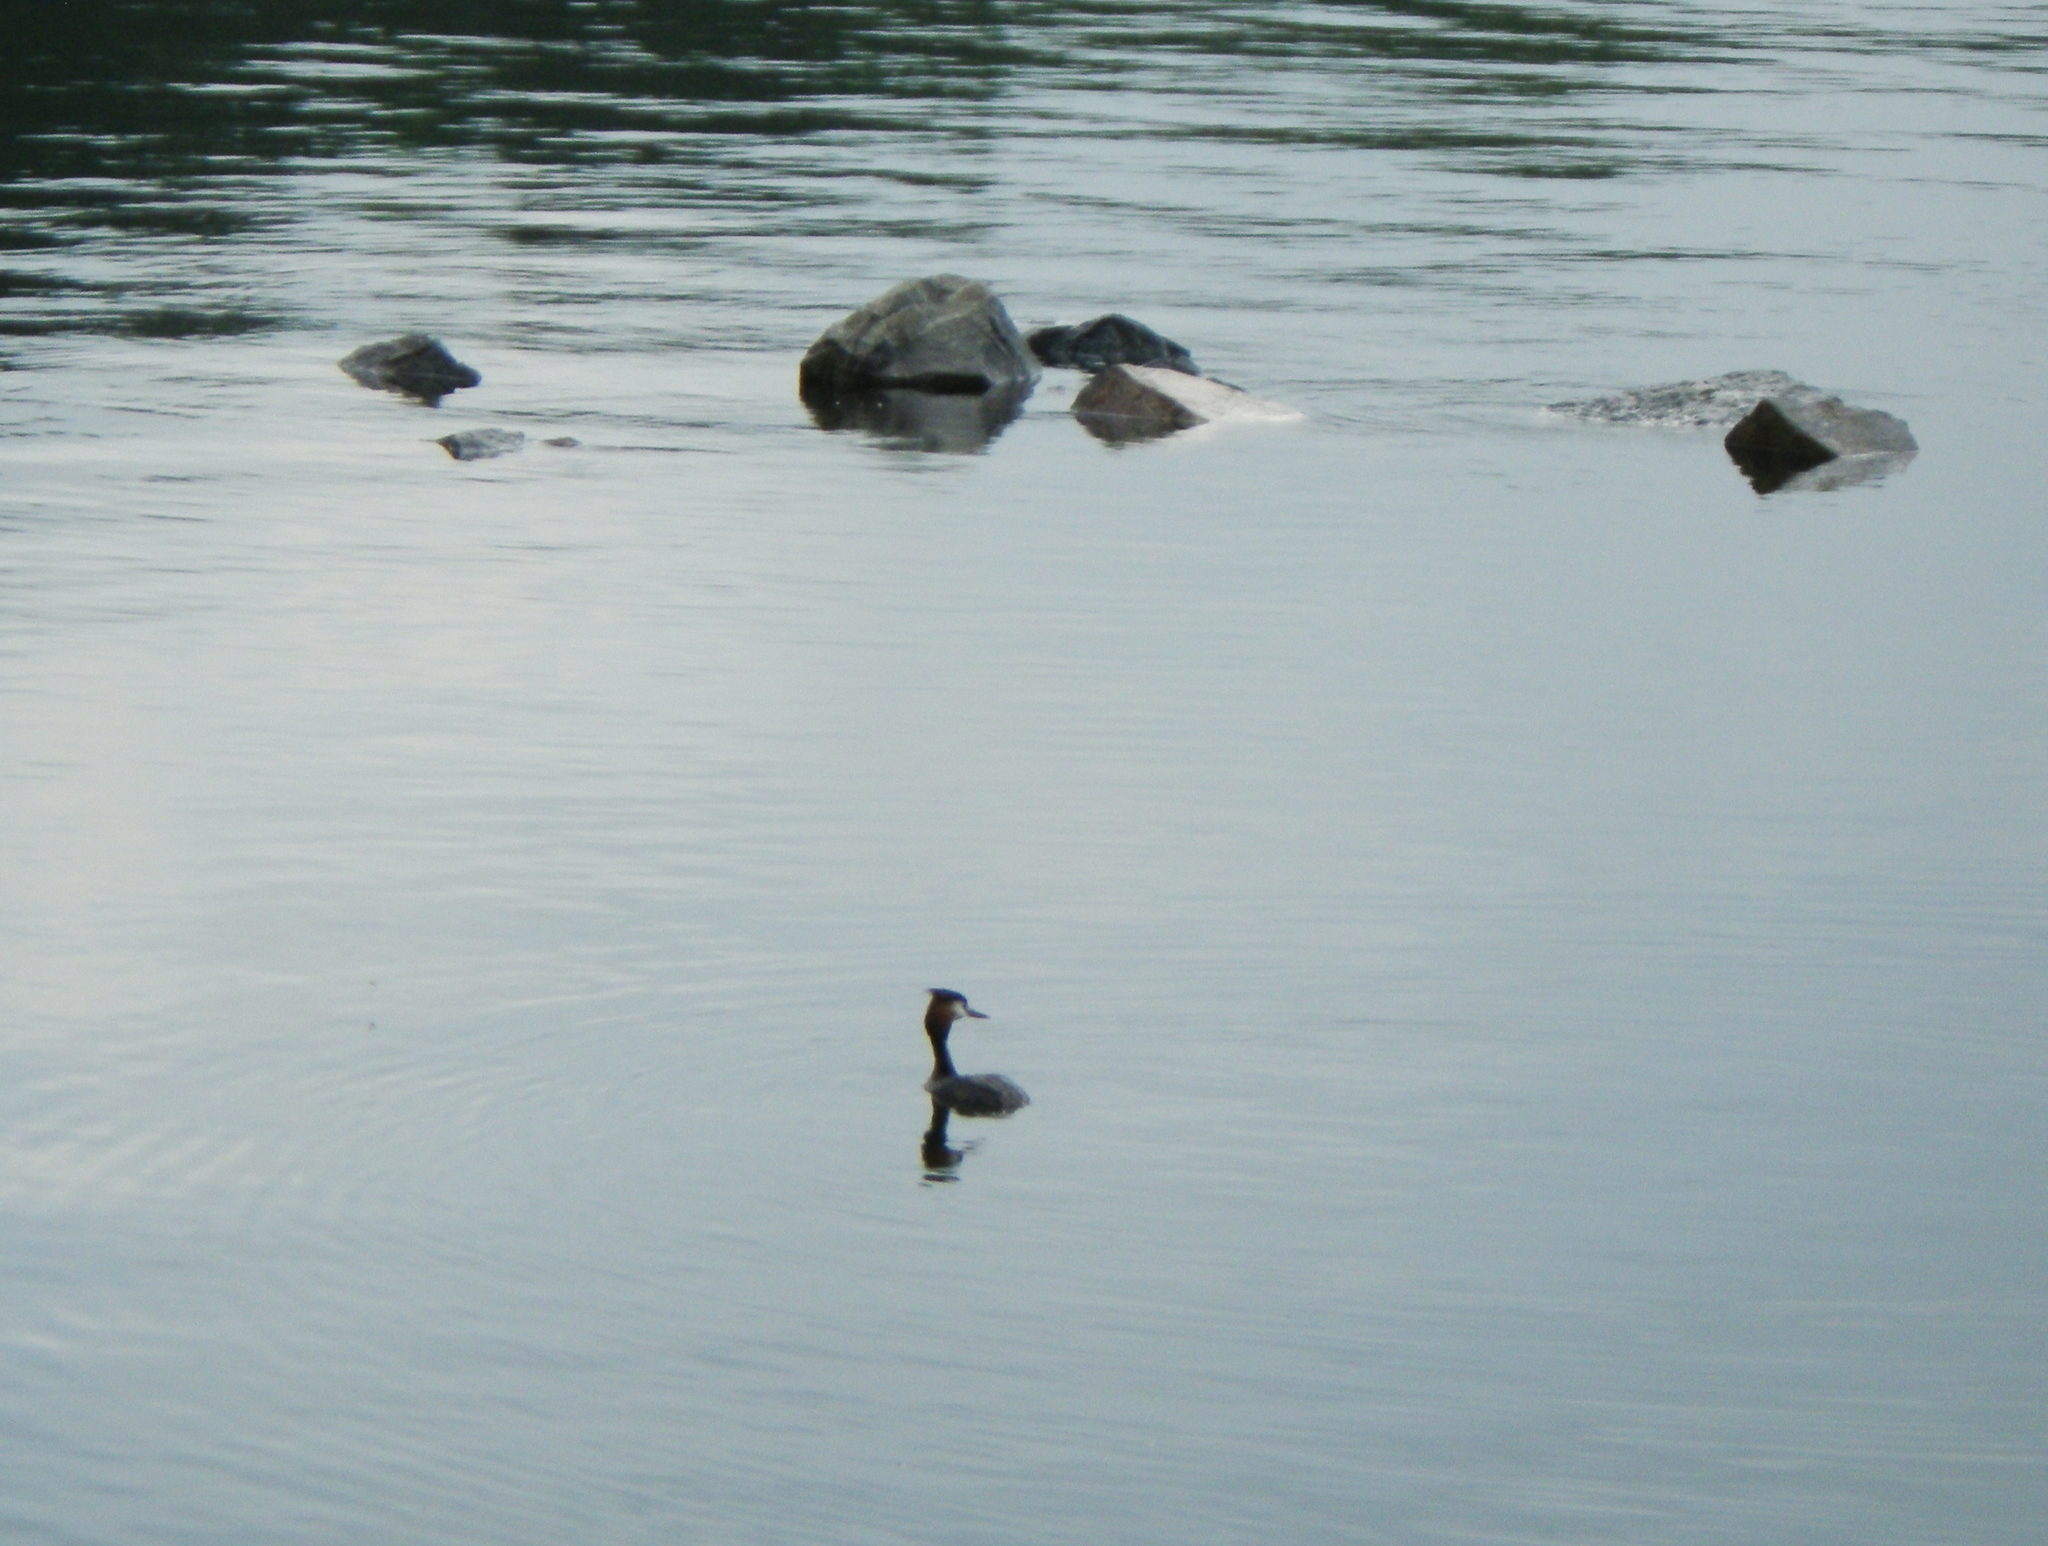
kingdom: Animalia
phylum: Chordata
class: Aves
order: Podicipediformes
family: Podicipedidae
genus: Podiceps
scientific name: Podiceps cristatus
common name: Great crested grebe
